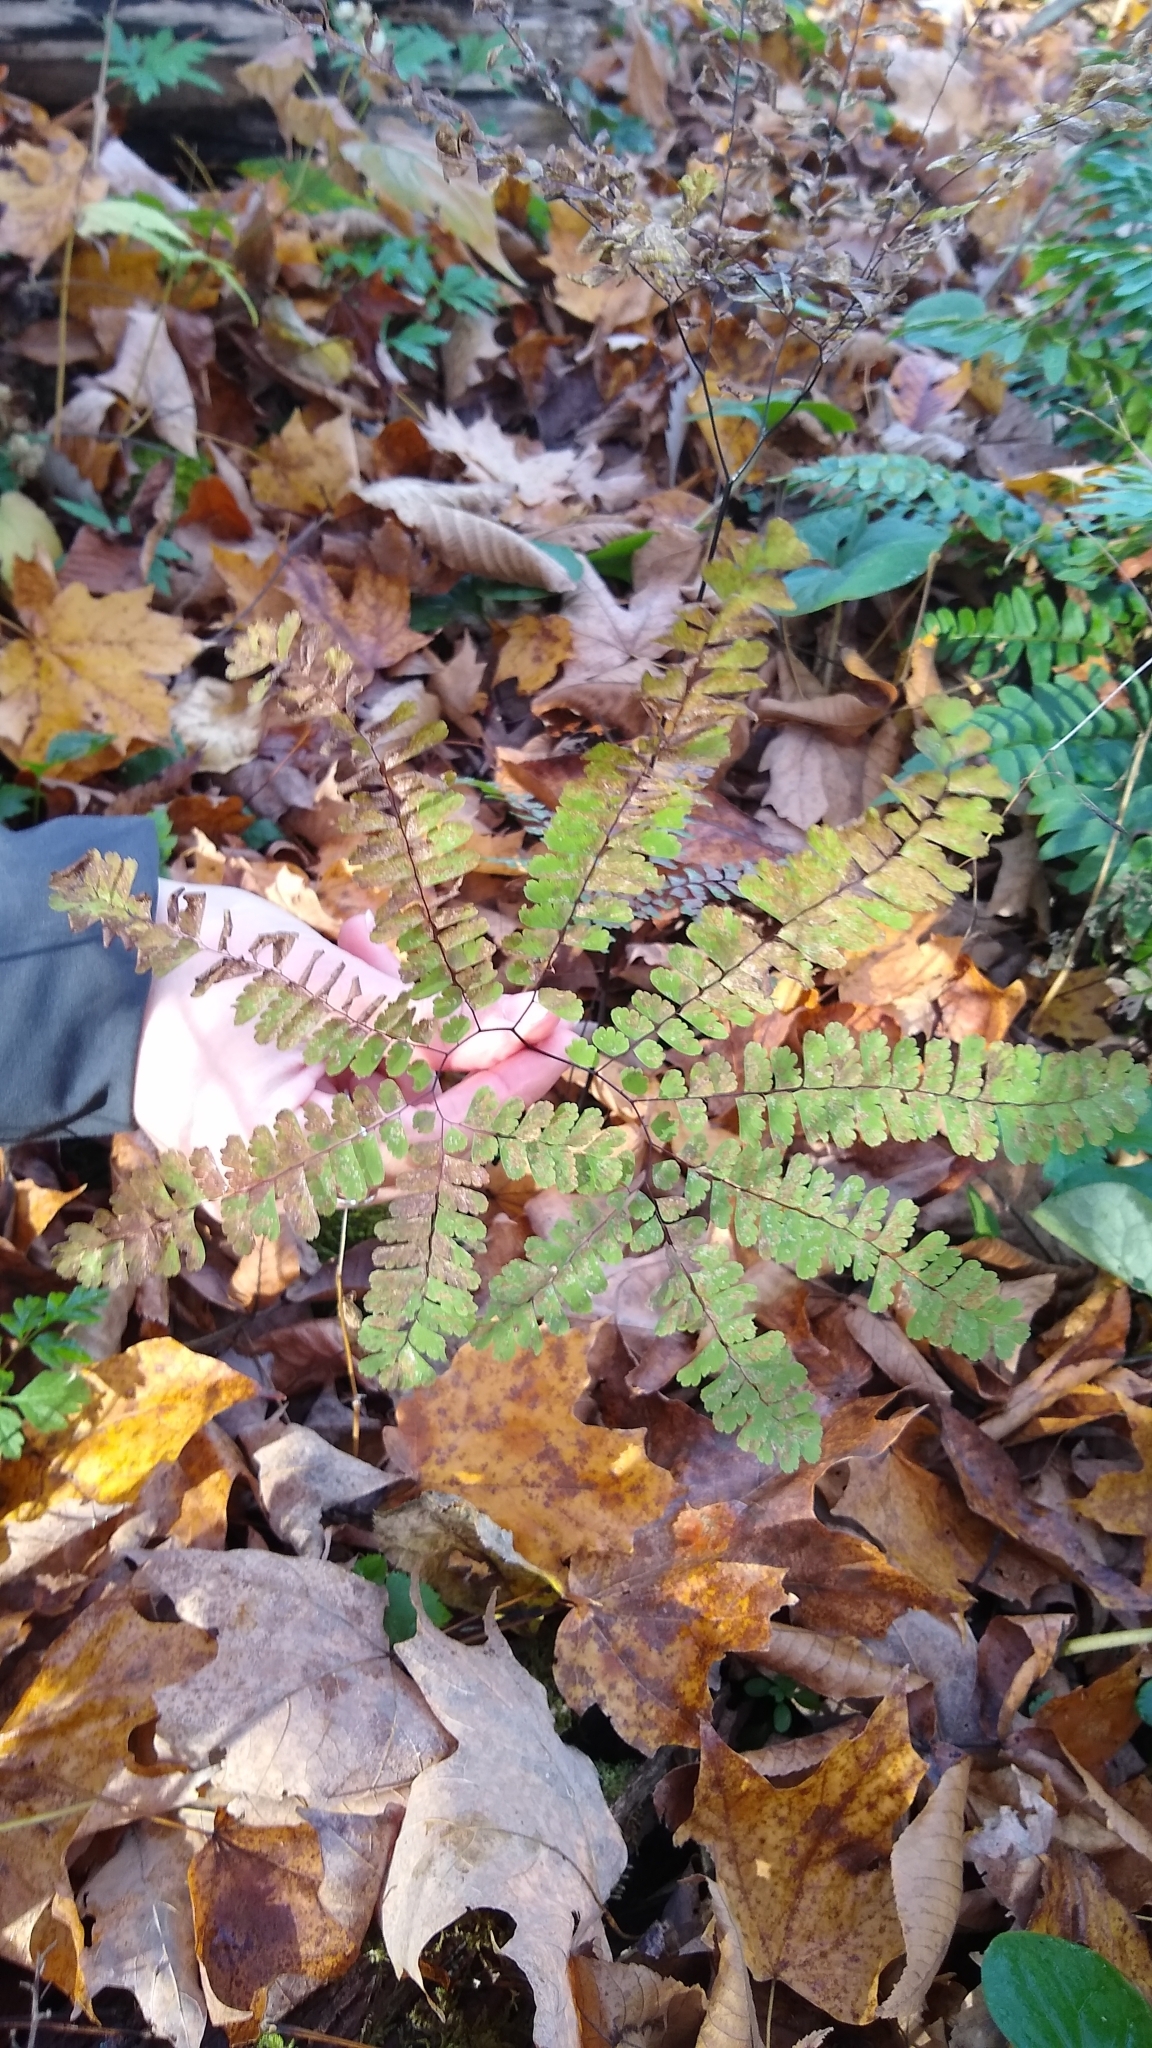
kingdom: Plantae
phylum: Tracheophyta
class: Polypodiopsida
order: Polypodiales
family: Pteridaceae
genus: Adiantum
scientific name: Adiantum pedatum
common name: Five-finger fern
